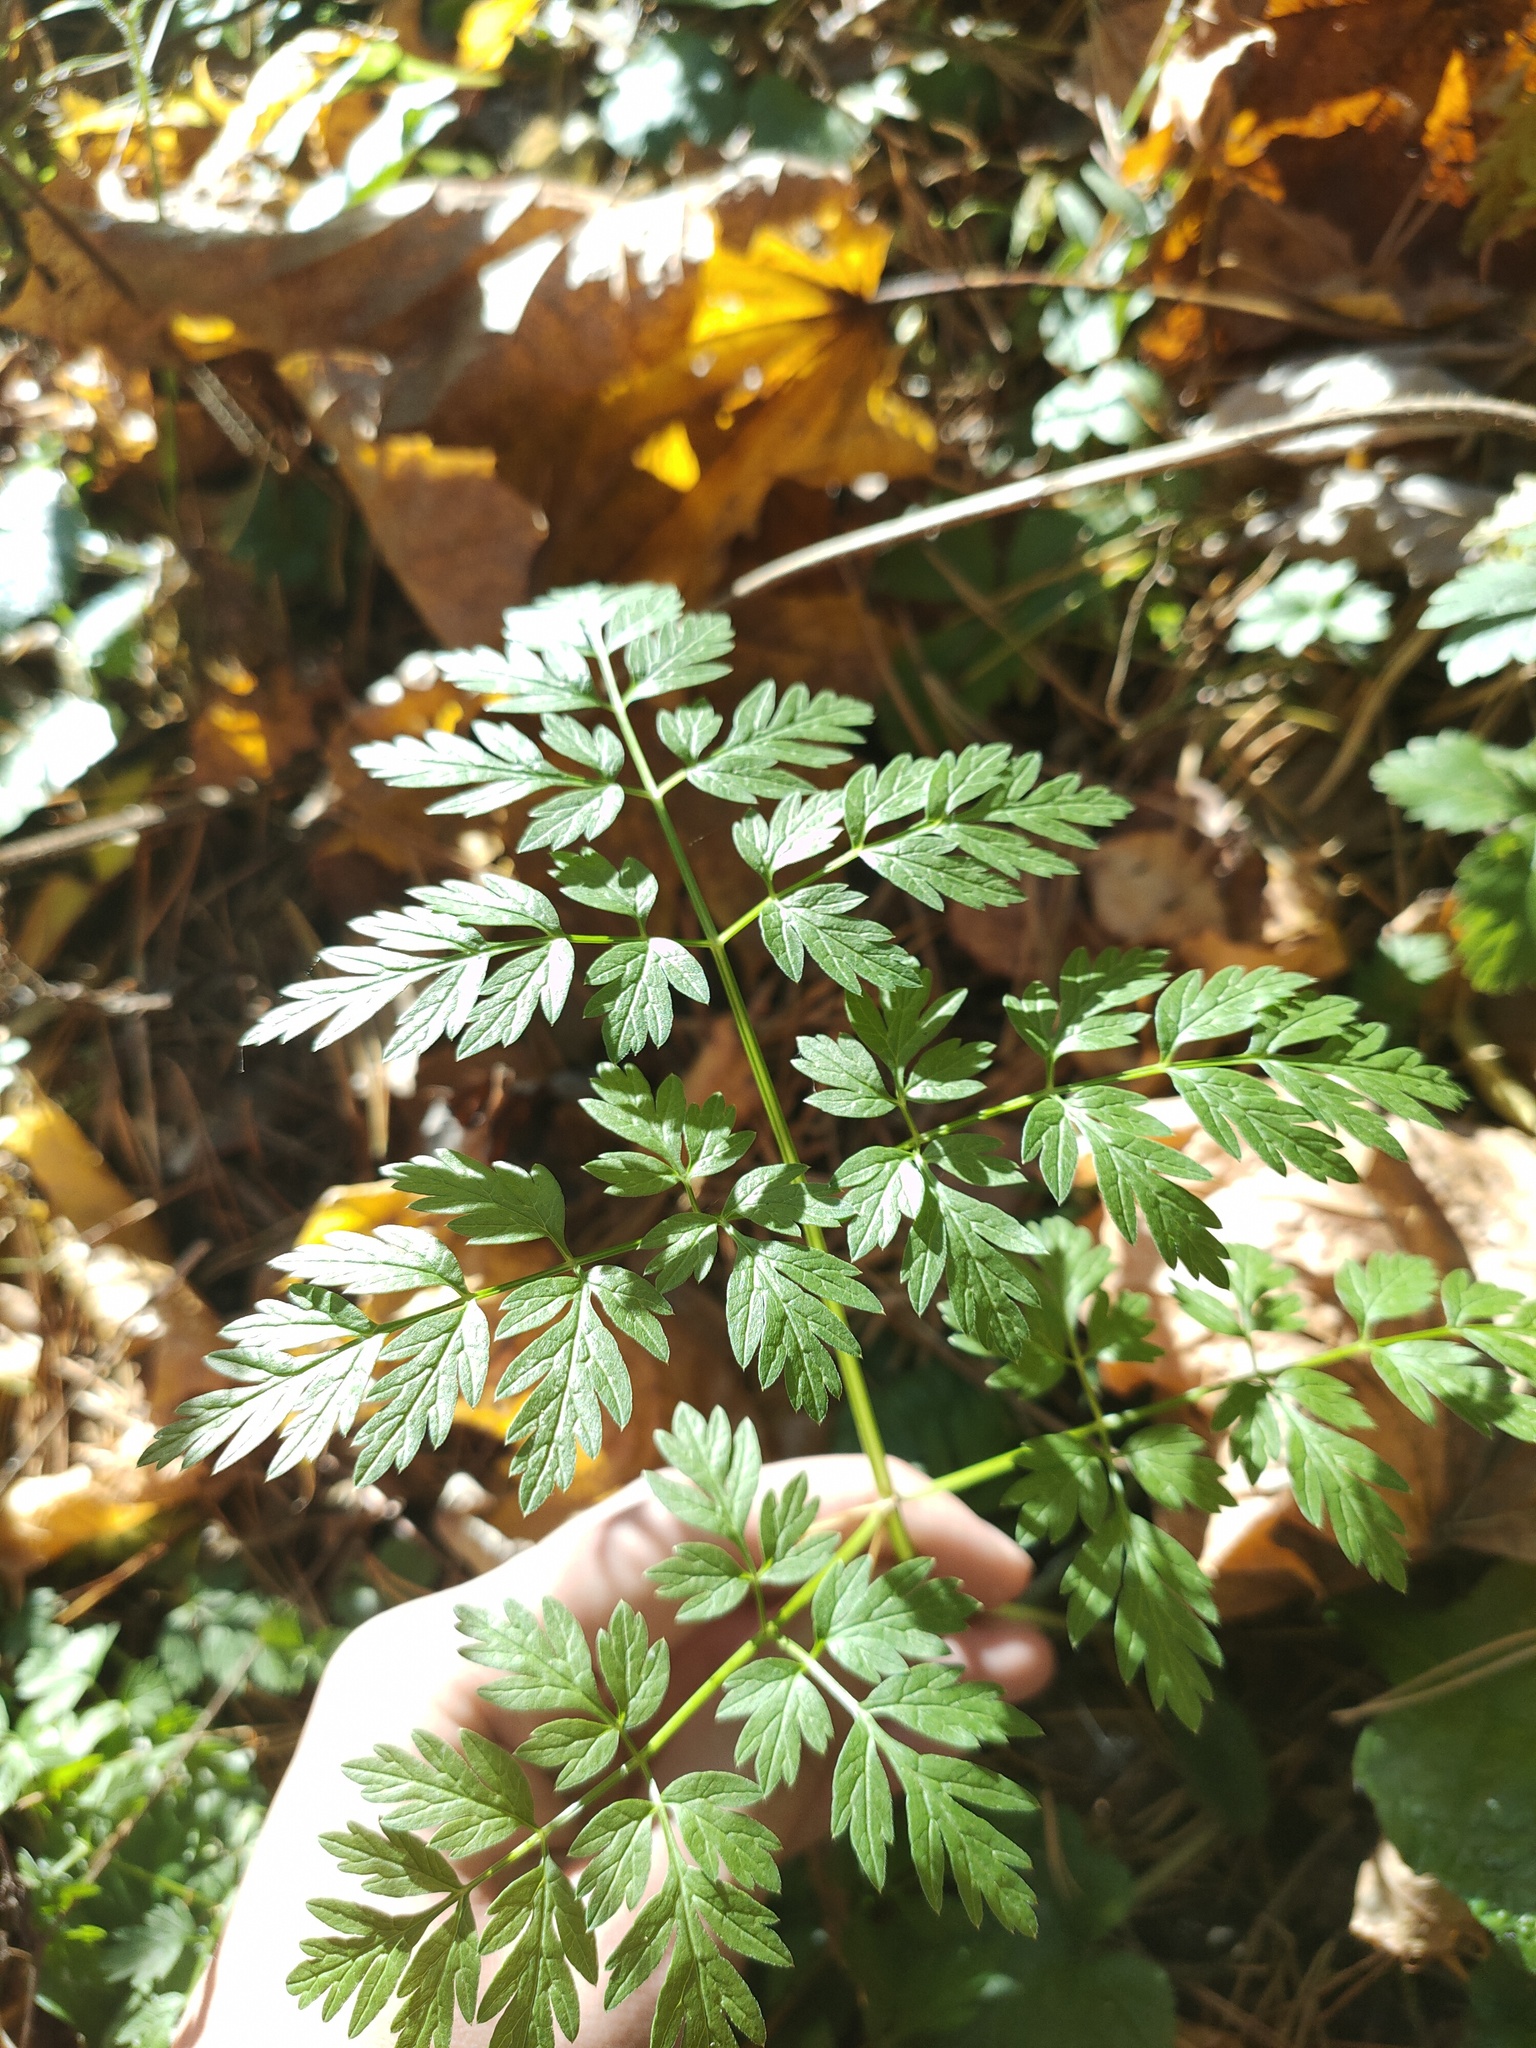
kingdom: Plantae
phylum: Tracheophyta
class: Magnoliopsida
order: Apiales
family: Apiaceae
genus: Anthriscus
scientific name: Anthriscus sylvestris
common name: Cow parsley
